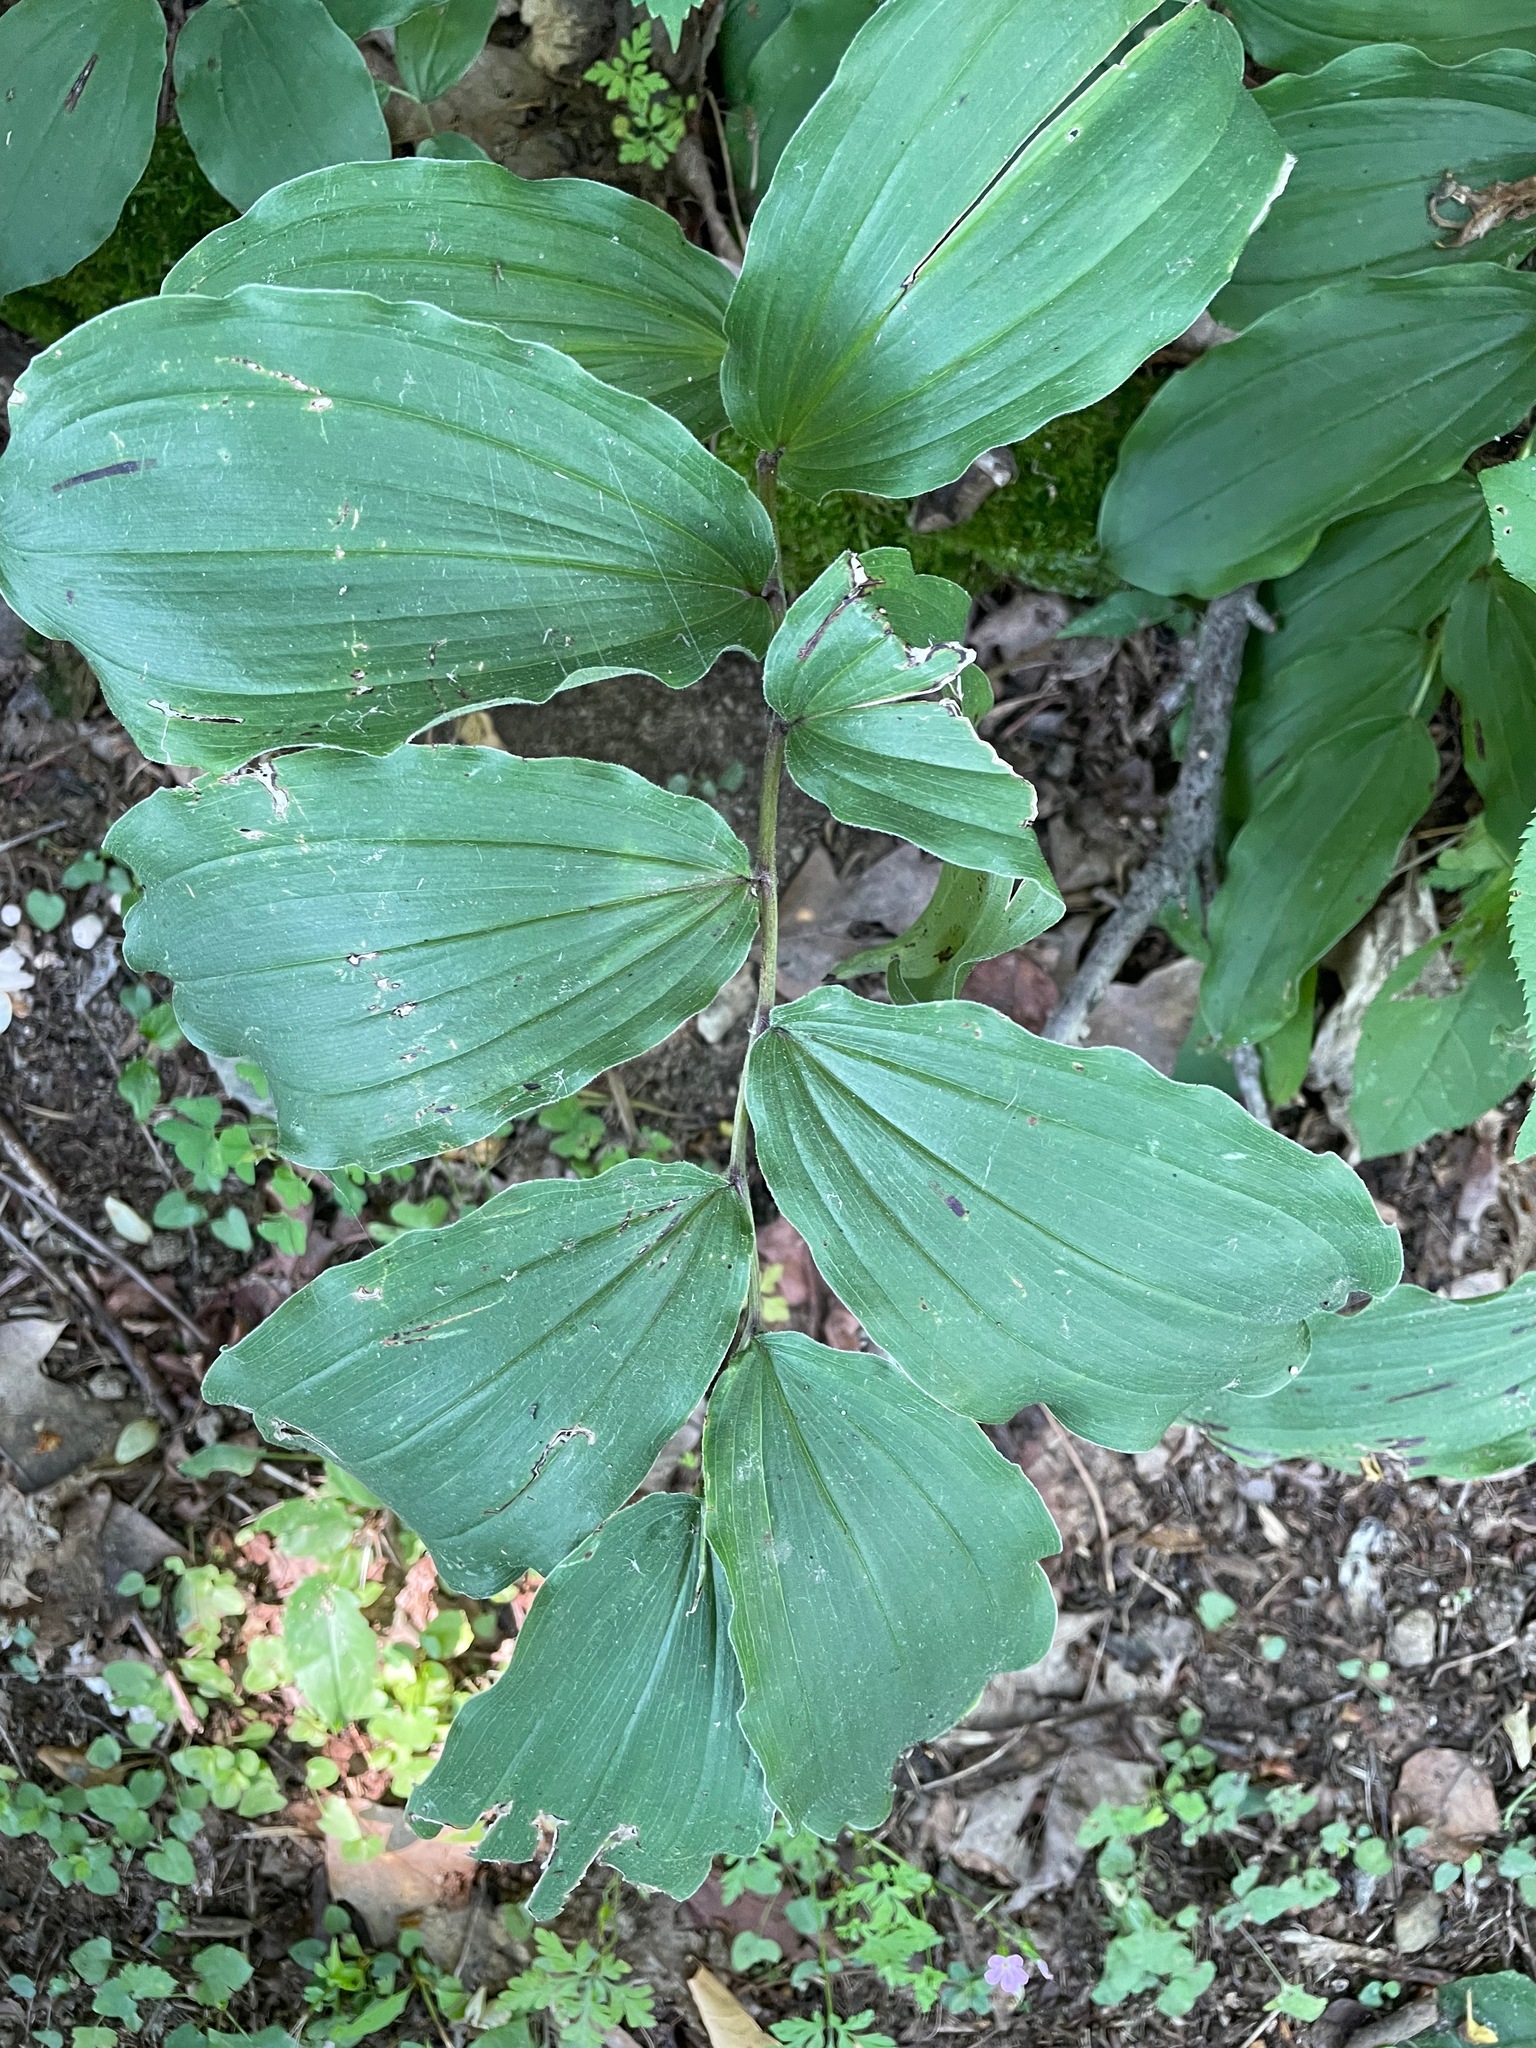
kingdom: Plantae
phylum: Tracheophyta
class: Liliopsida
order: Asparagales
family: Asparagaceae
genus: Maianthemum
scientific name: Maianthemum racemosum
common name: False spikenard
